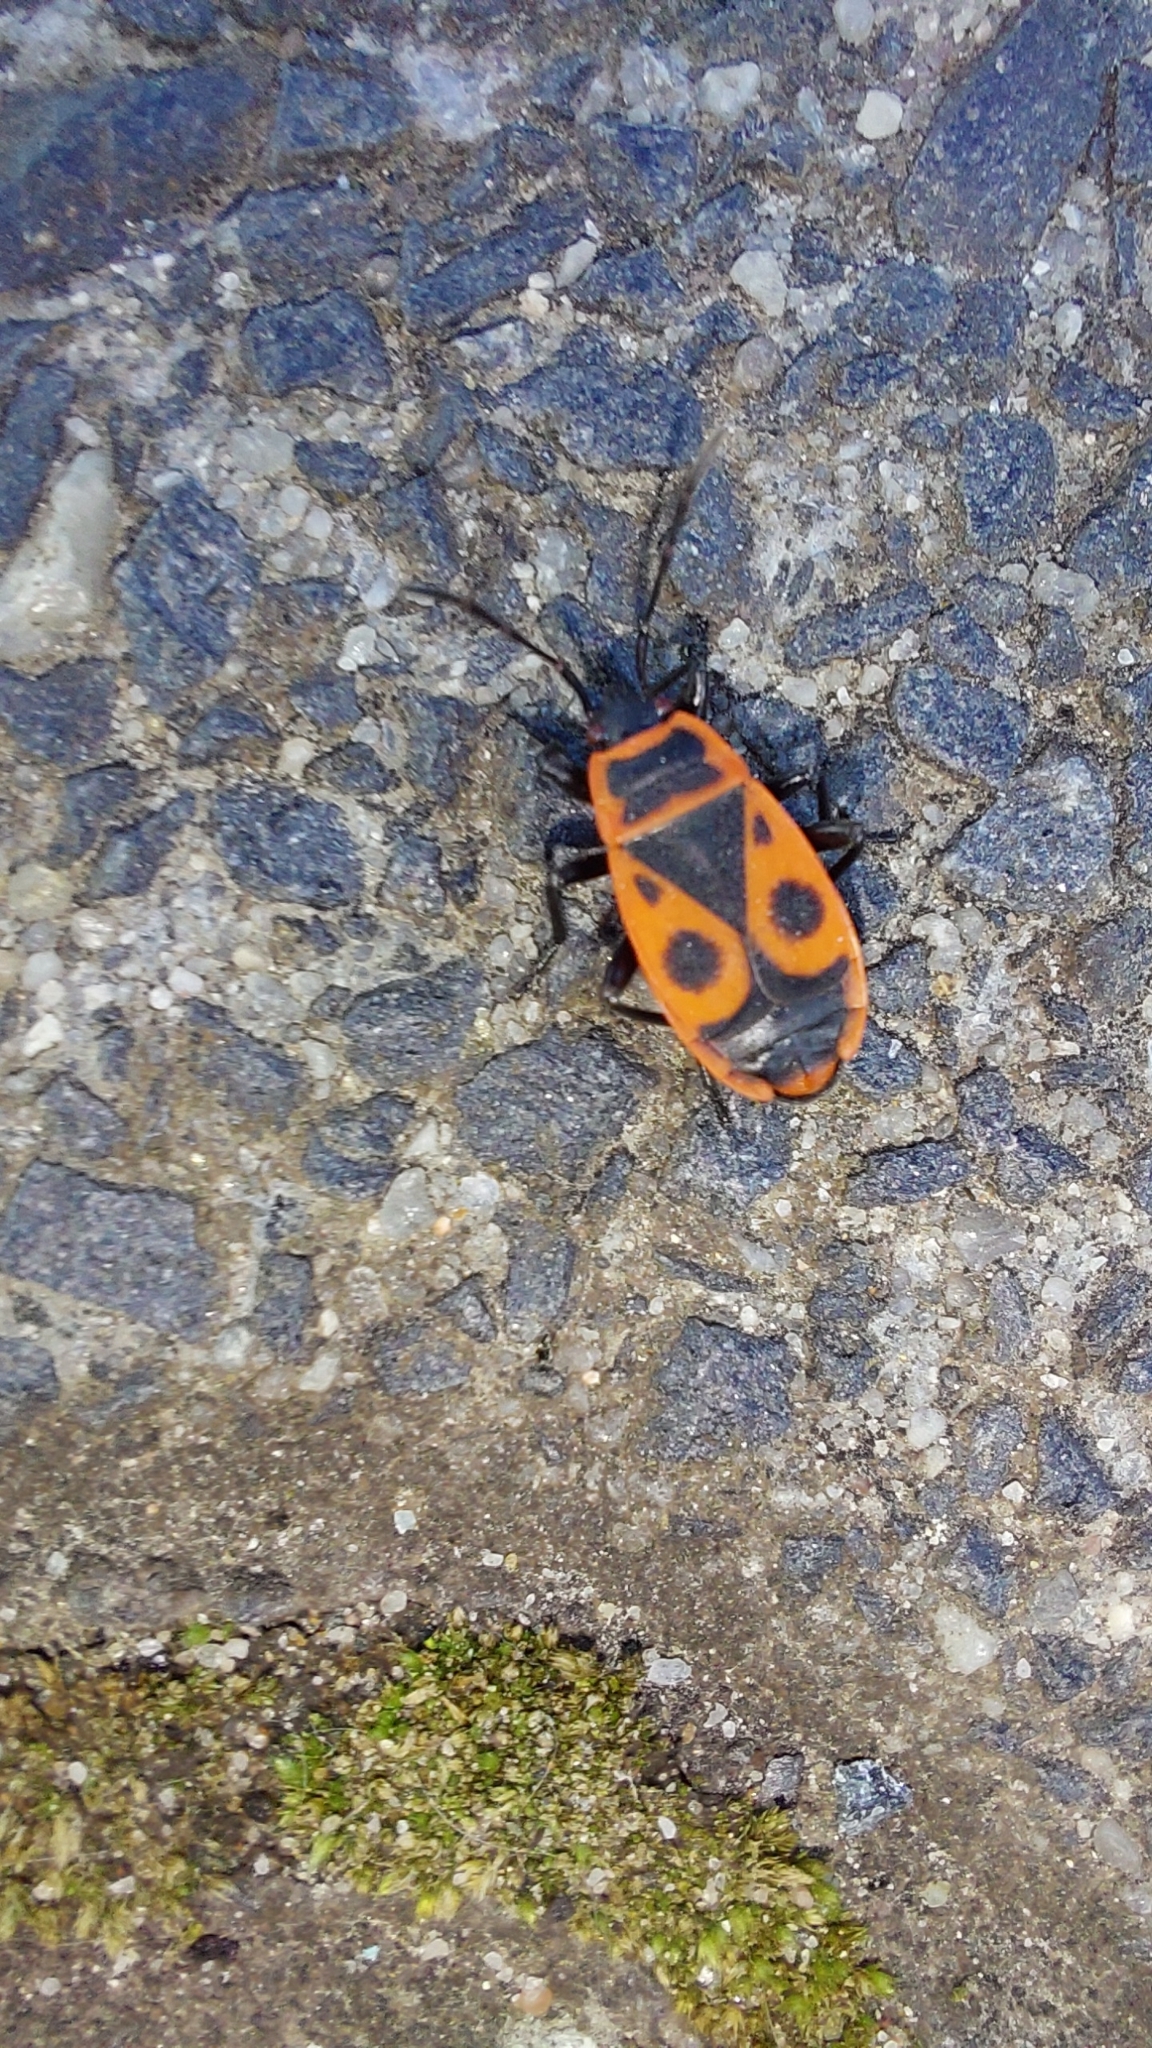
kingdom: Animalia
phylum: Arthropoda
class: Insecta
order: Hemiptera
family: Pyrrhocoridae
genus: Pyrrhocoris
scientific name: Pyrrhocoris apterus
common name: Firebug
